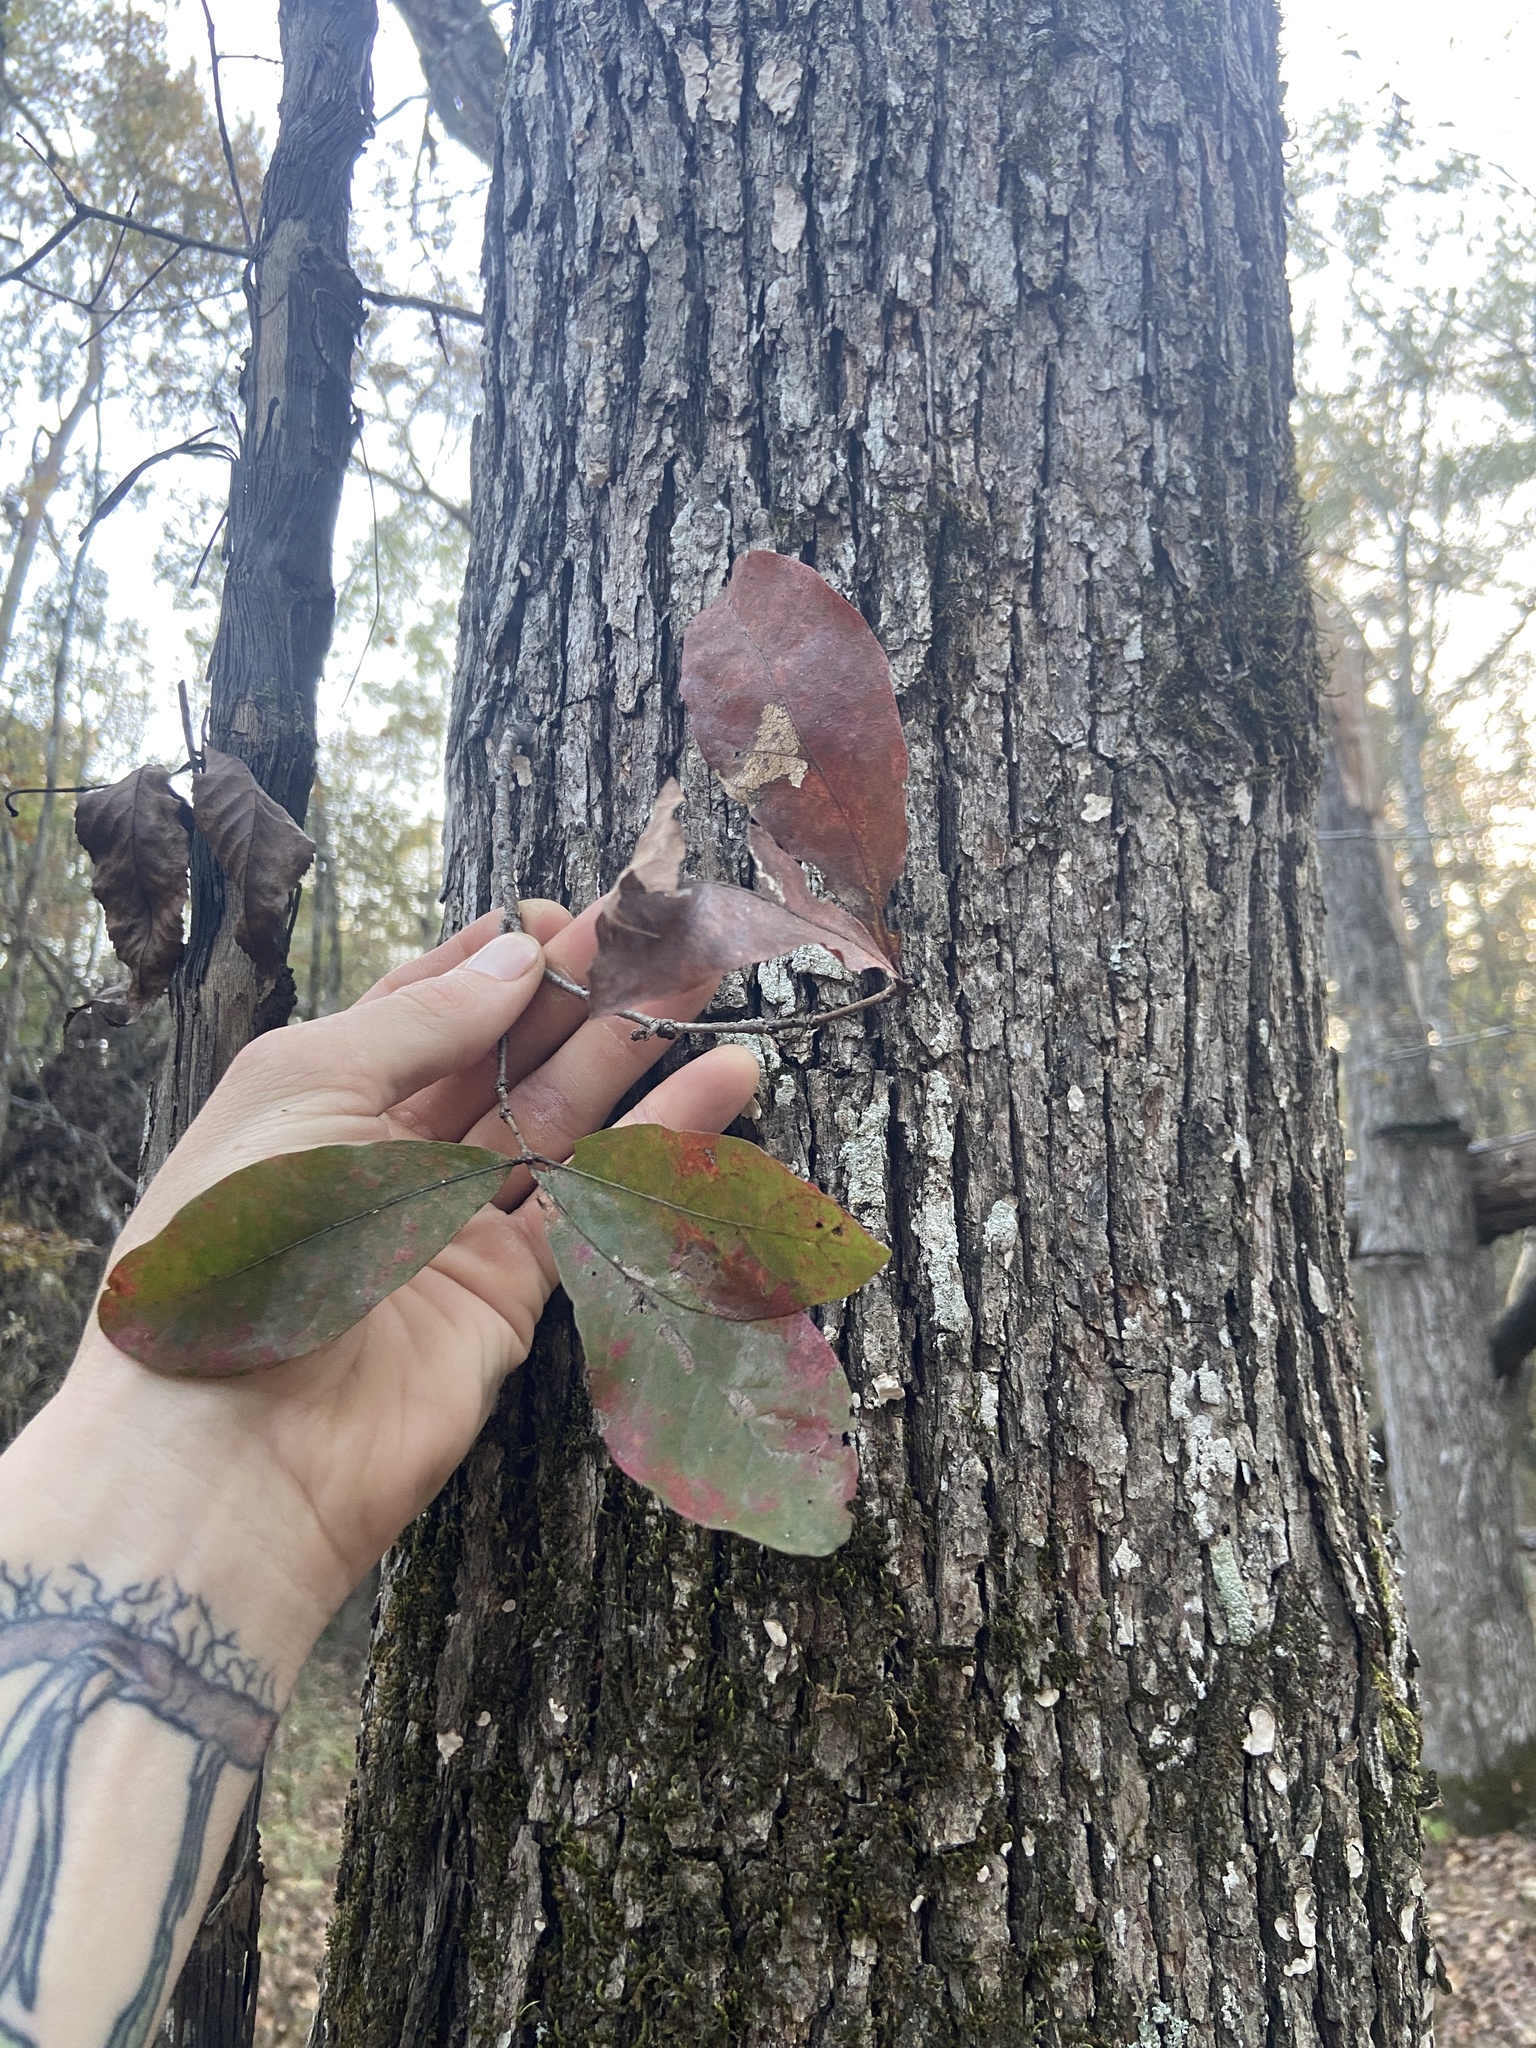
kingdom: Plantae
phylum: Tracheophyta
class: Magnoliopsida
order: Fagales
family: Fagaceae
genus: Quercus
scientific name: Quercus oglethorpensis
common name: Oglethorpe oak
